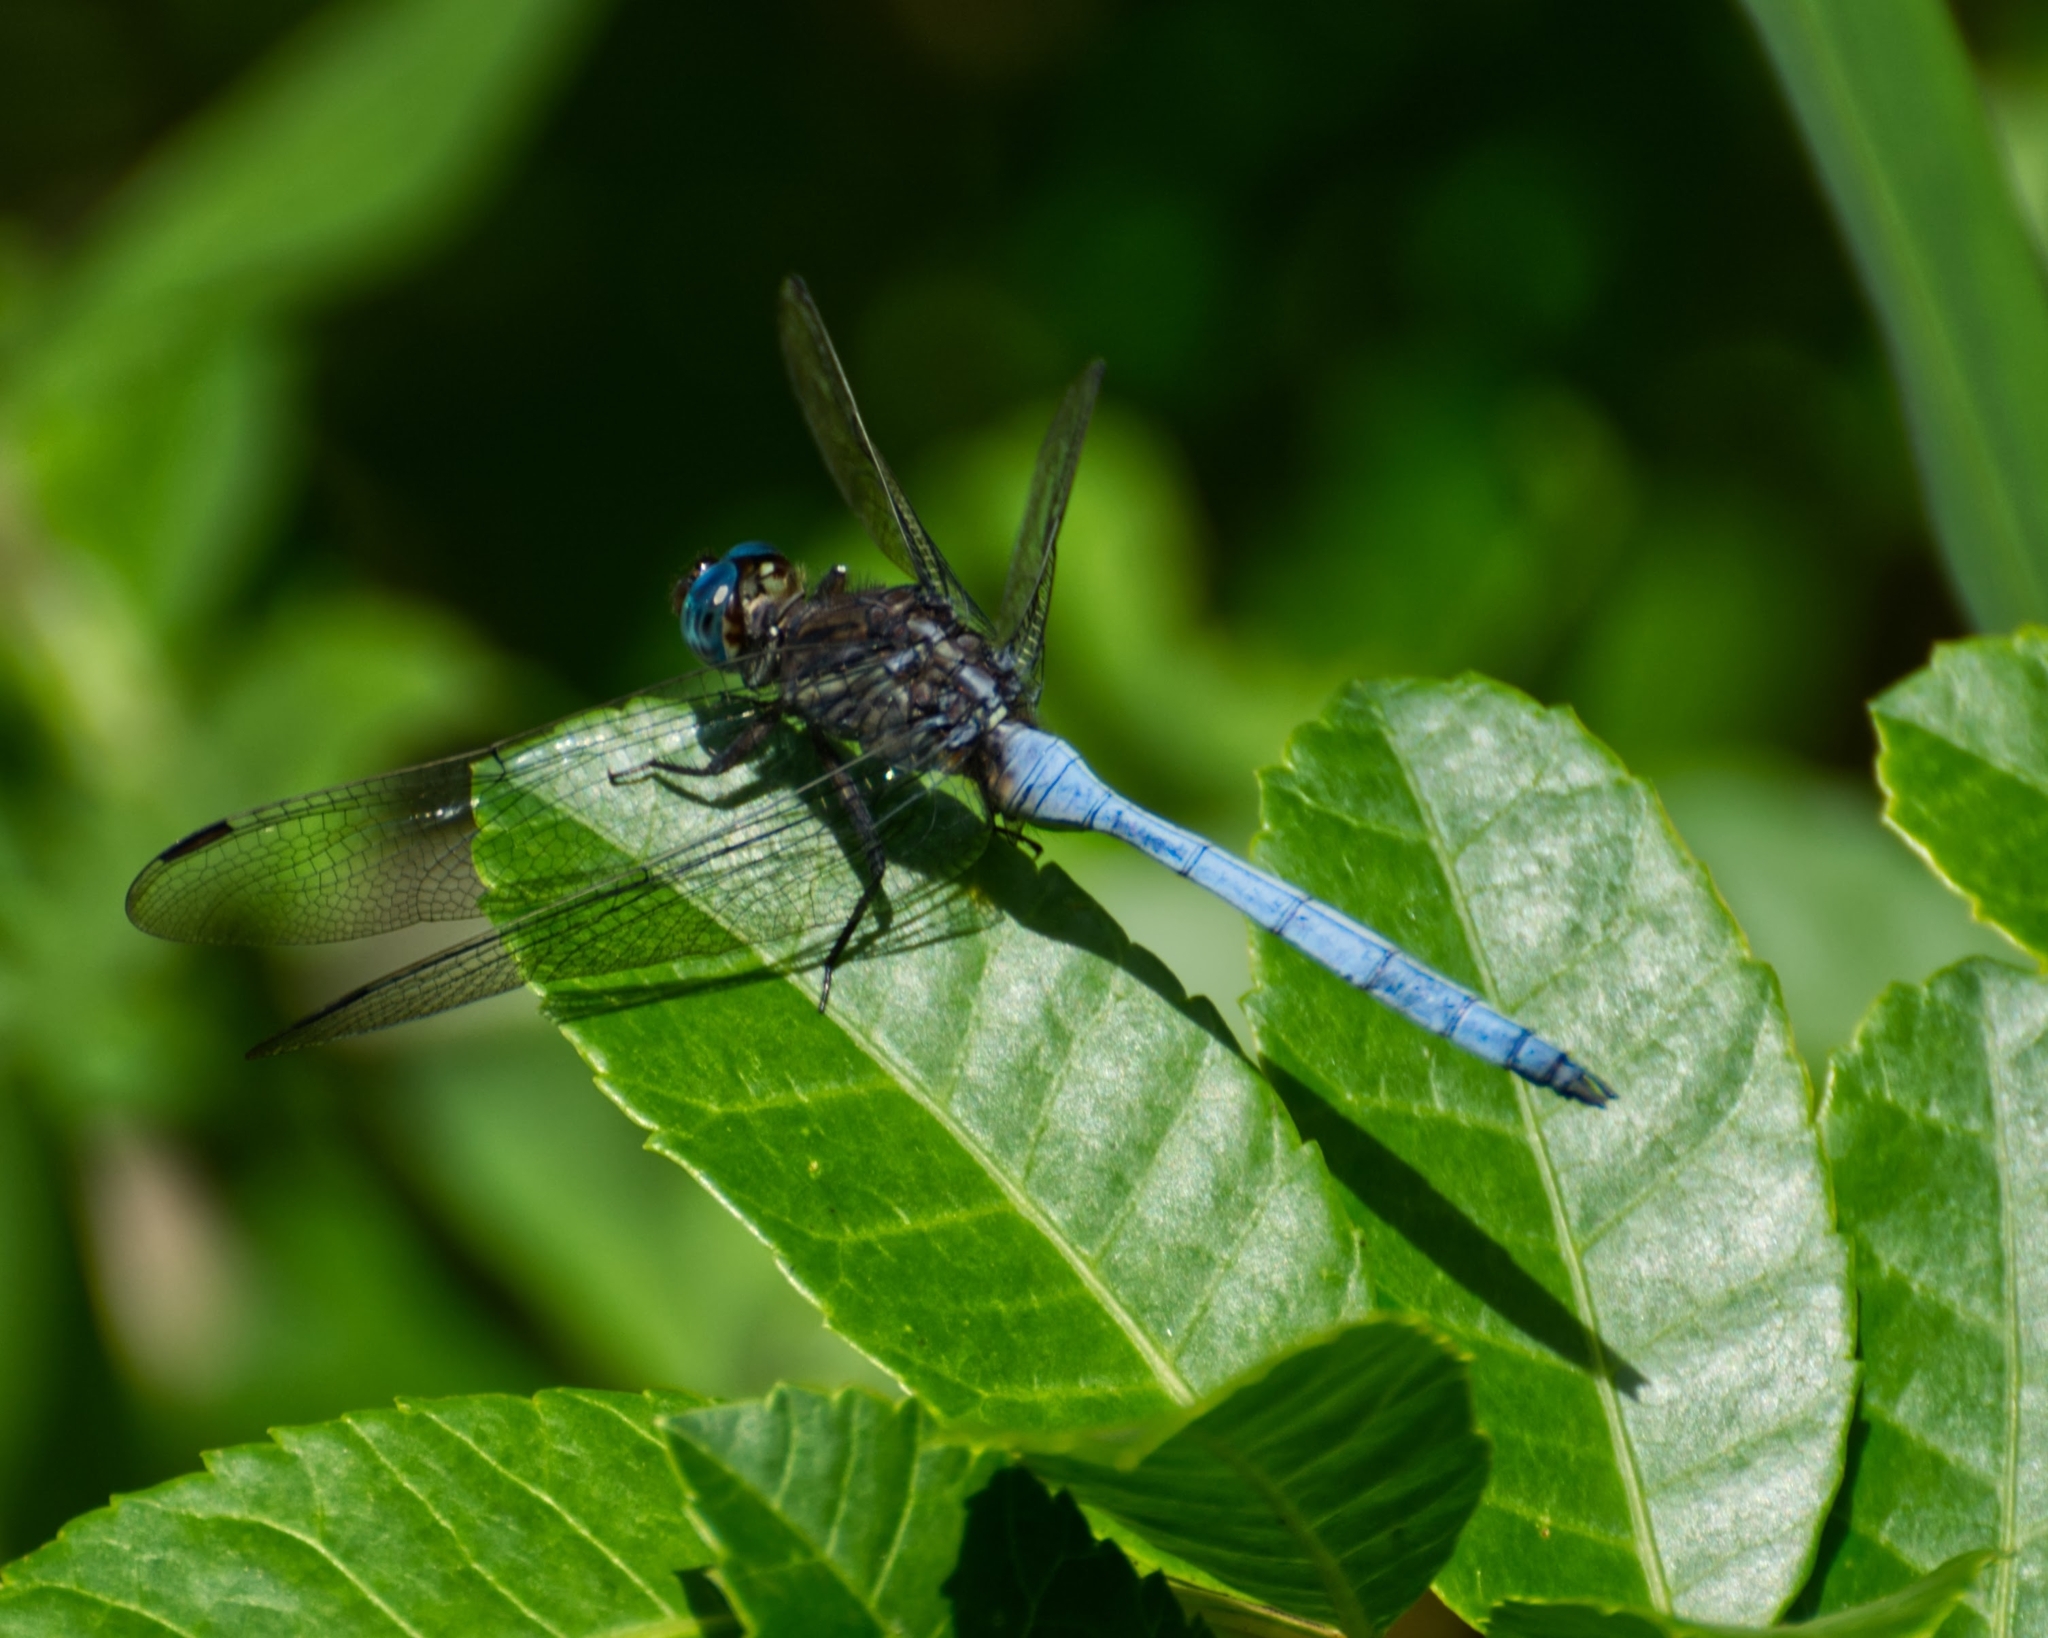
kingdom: Animalia
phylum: Arthropoda
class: Insecta
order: Odonata
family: Libellulidae
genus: Orthetrum
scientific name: Orthetrum julia
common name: Julia skimmer
